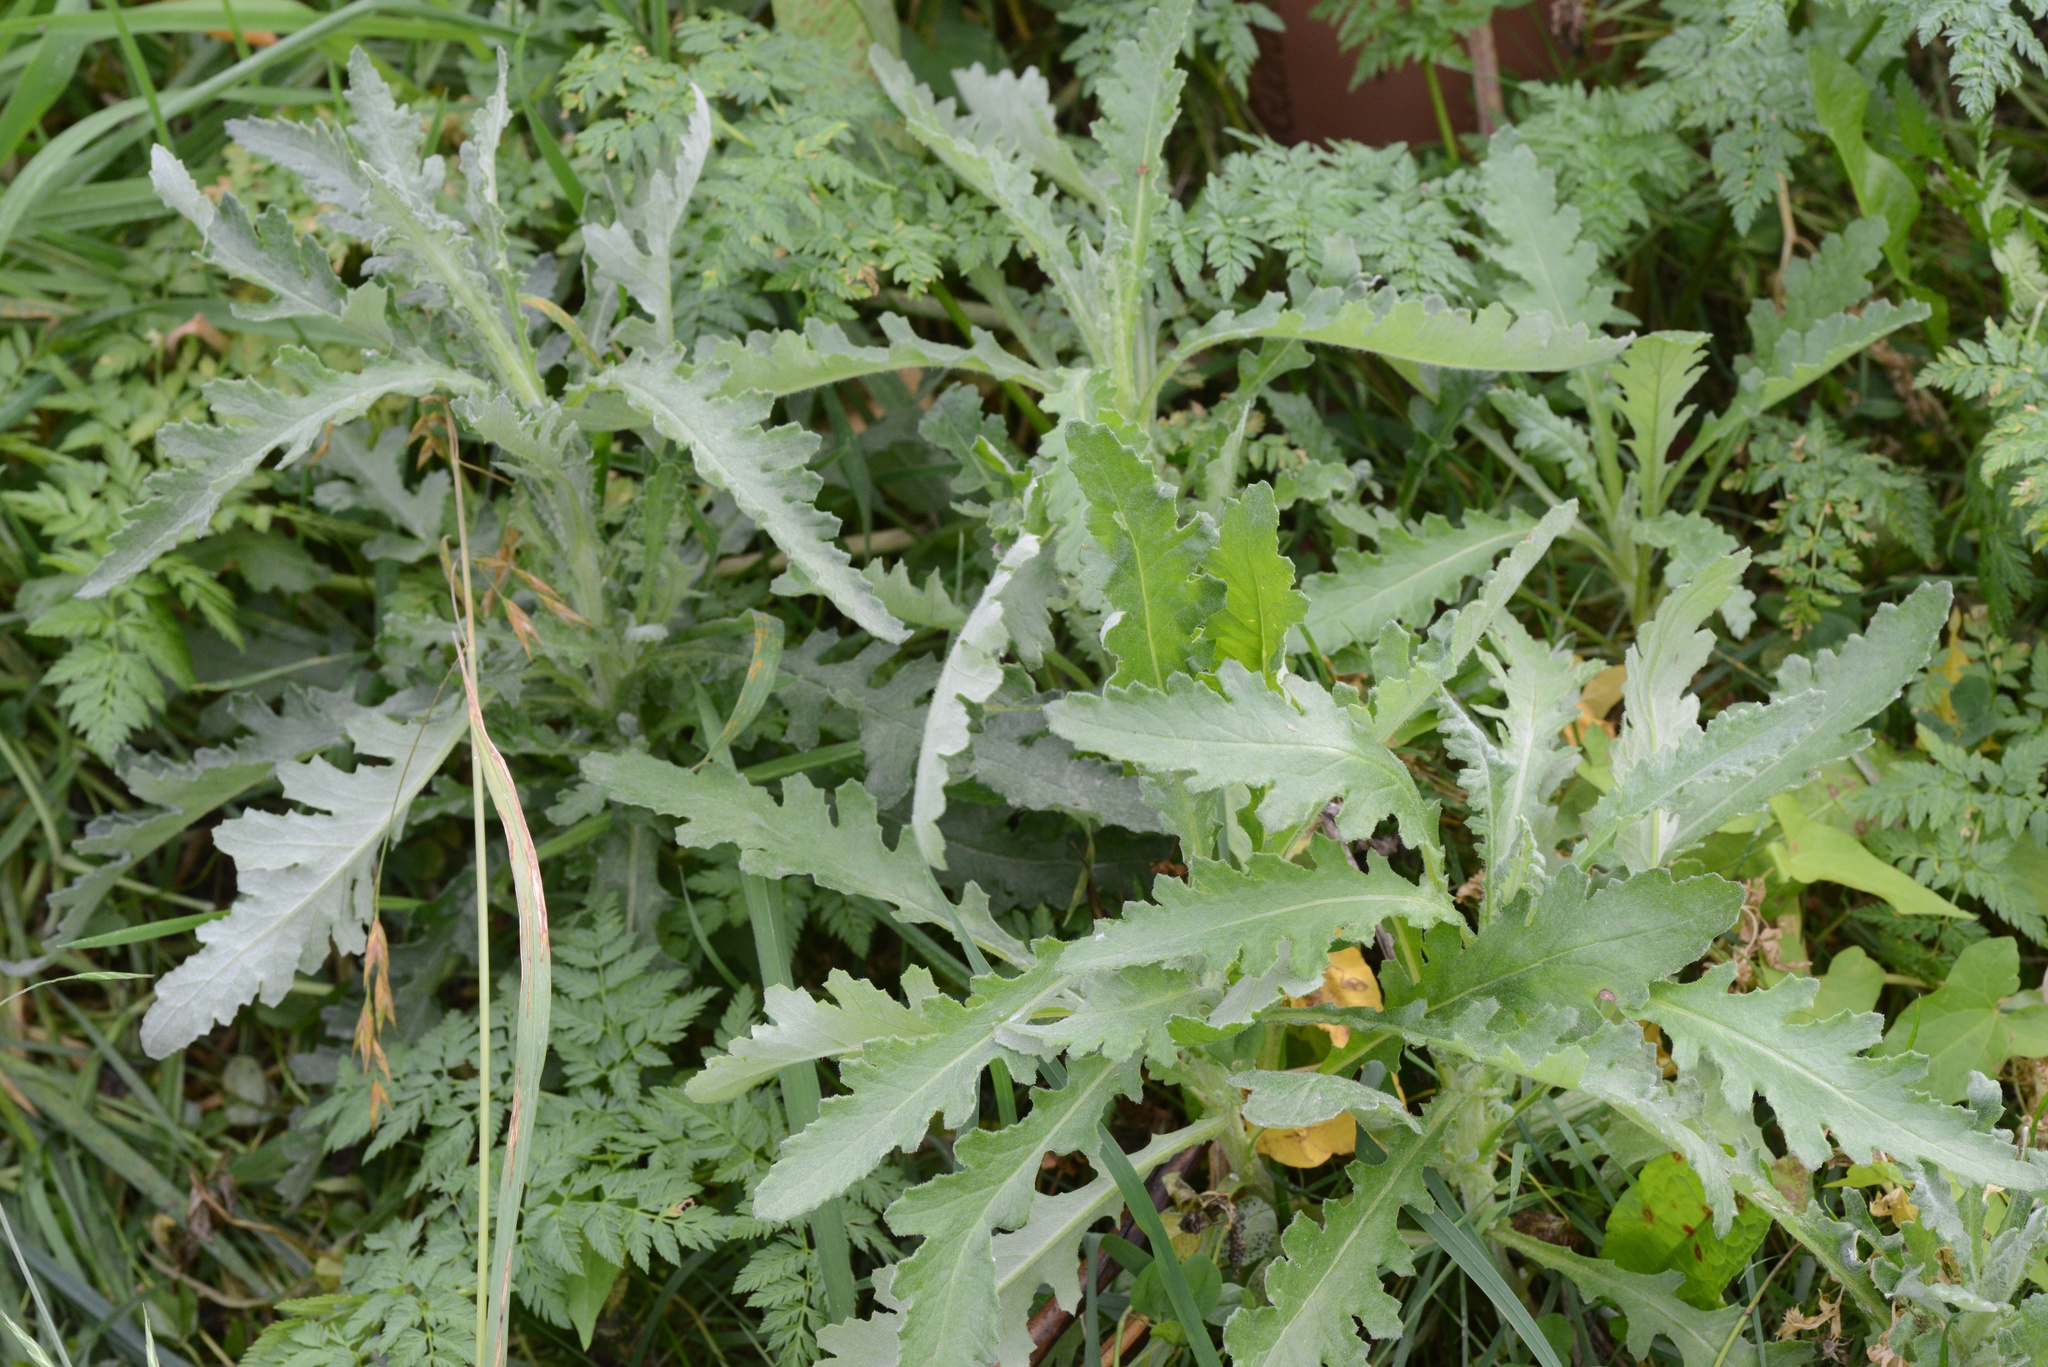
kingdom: Plantae
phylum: Tracheophyta
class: Magnoliopsida
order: Asterales
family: Asteraceae
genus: Senecio
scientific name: Senecio glomeratus
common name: Cutleaf burnweed
